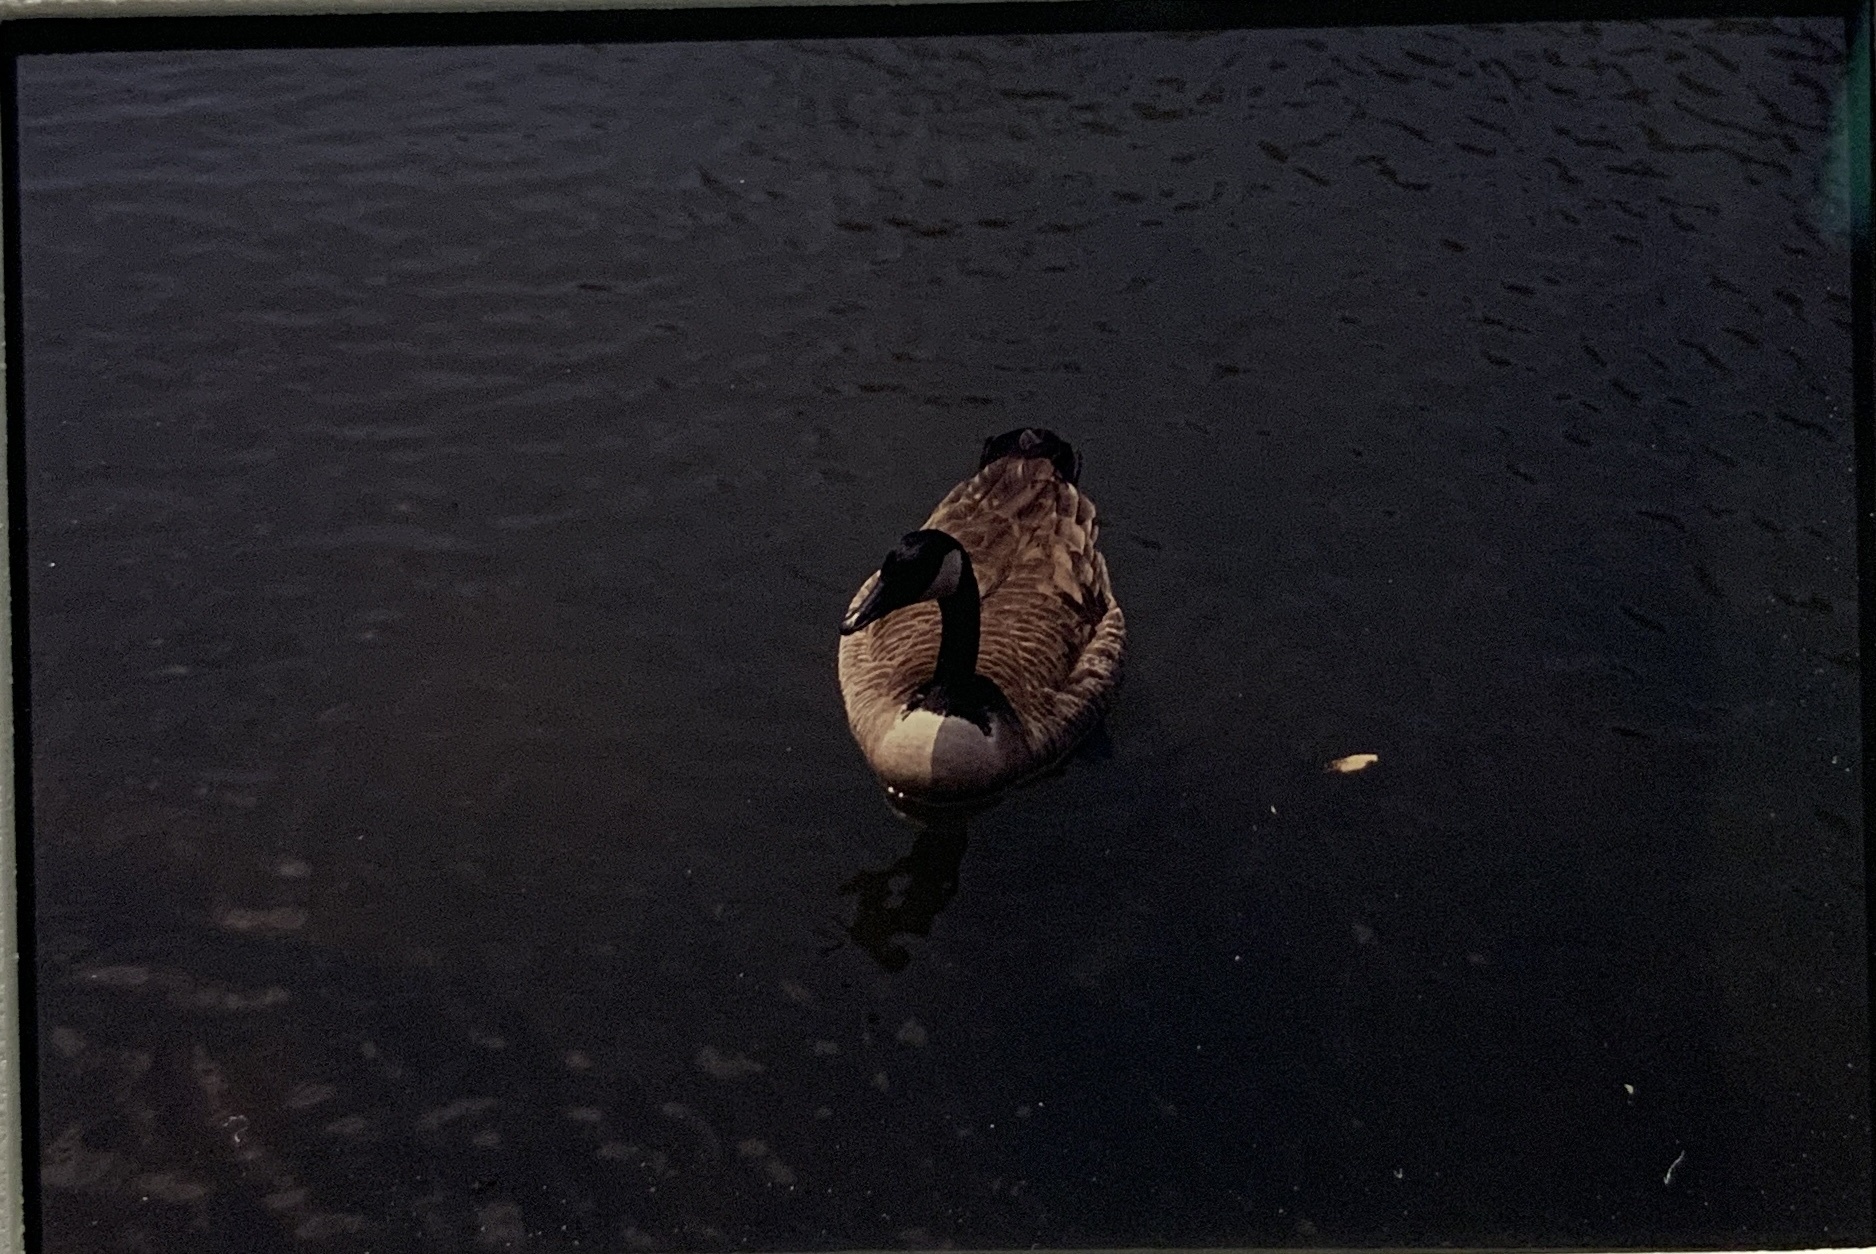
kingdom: Animalia
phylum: Chordata
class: Aves
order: Anseriformes
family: Anatidae
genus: Branta
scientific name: Branta canadensis
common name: Canada goose
